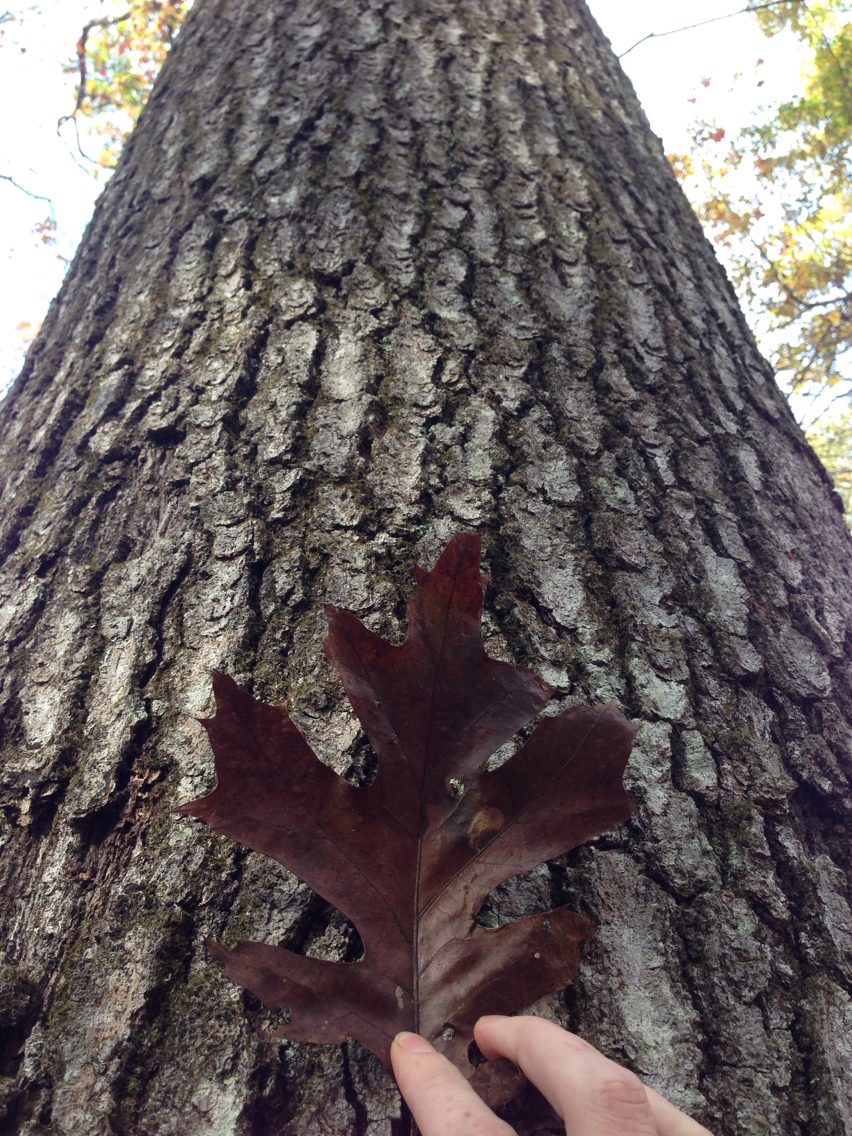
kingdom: Plantae
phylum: Tracheophyta
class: Magnoliopsida
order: Fagales
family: Fagaceae
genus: Quercus
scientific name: Quercus rubra
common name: Red oak
